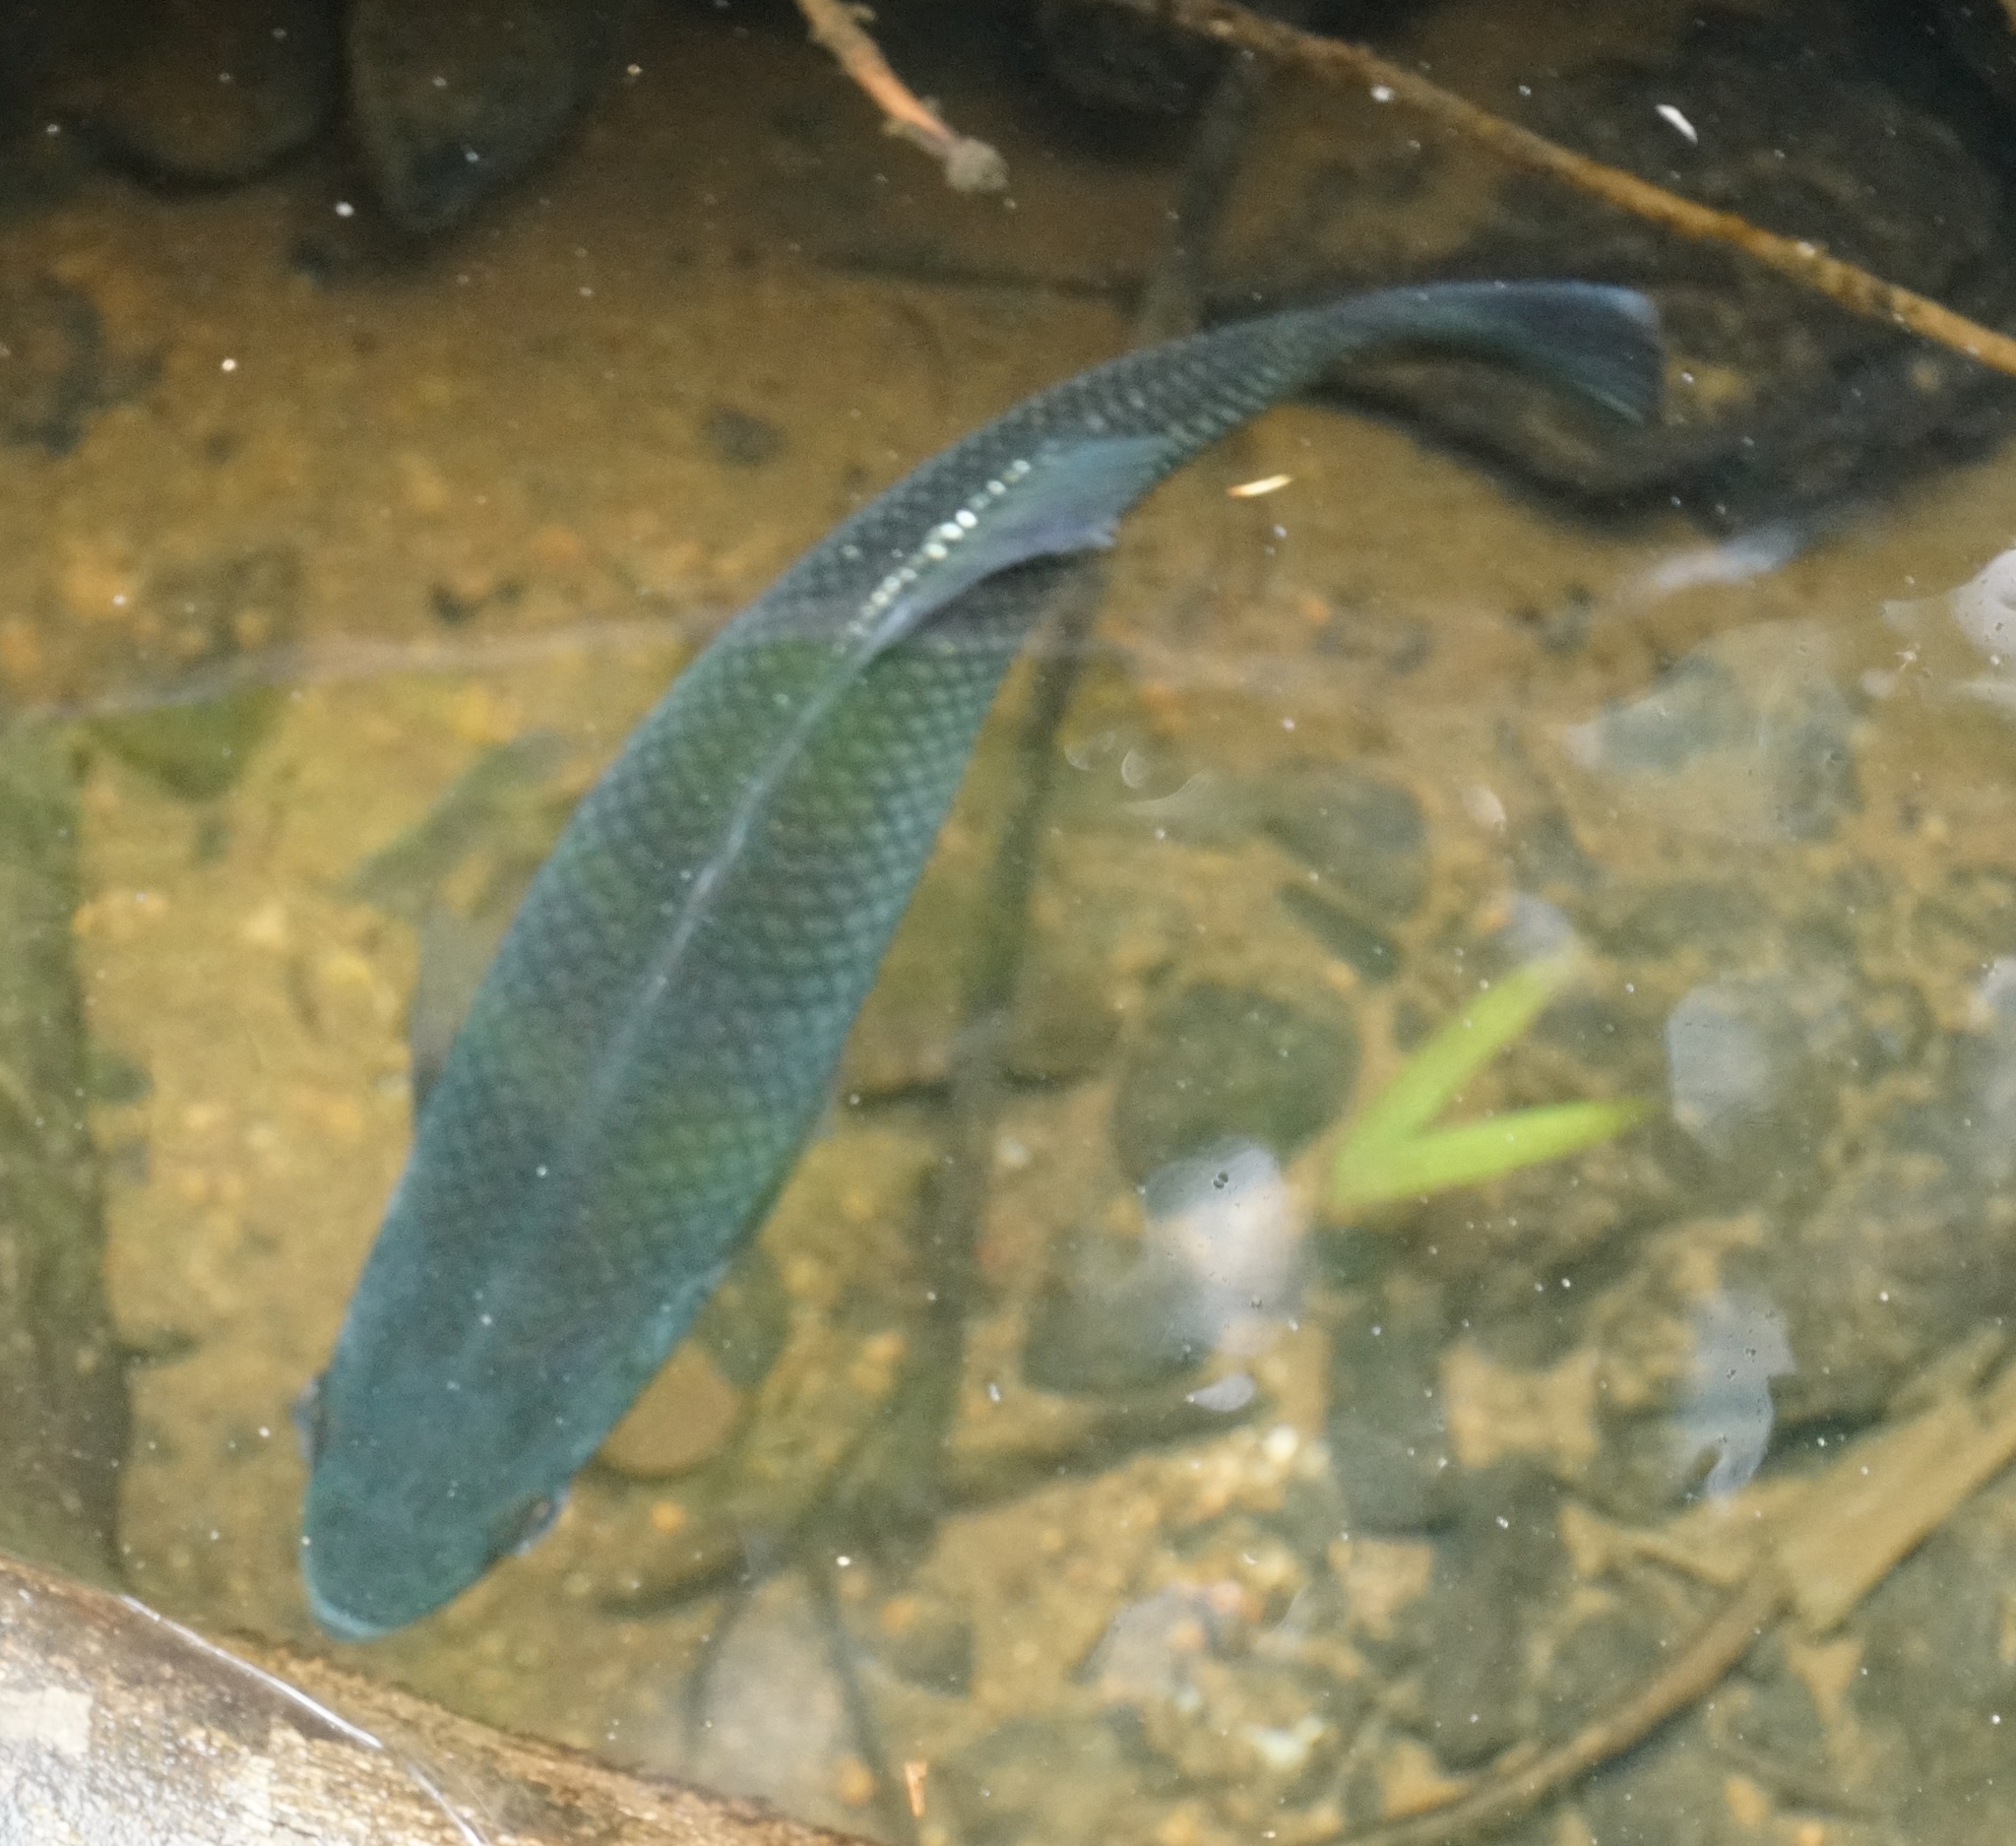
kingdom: Animalia
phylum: Chordata
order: Perciformes
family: Kuhliidae
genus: Kuhlia
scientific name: Kuhlia rupestris
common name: Rock flagtail
